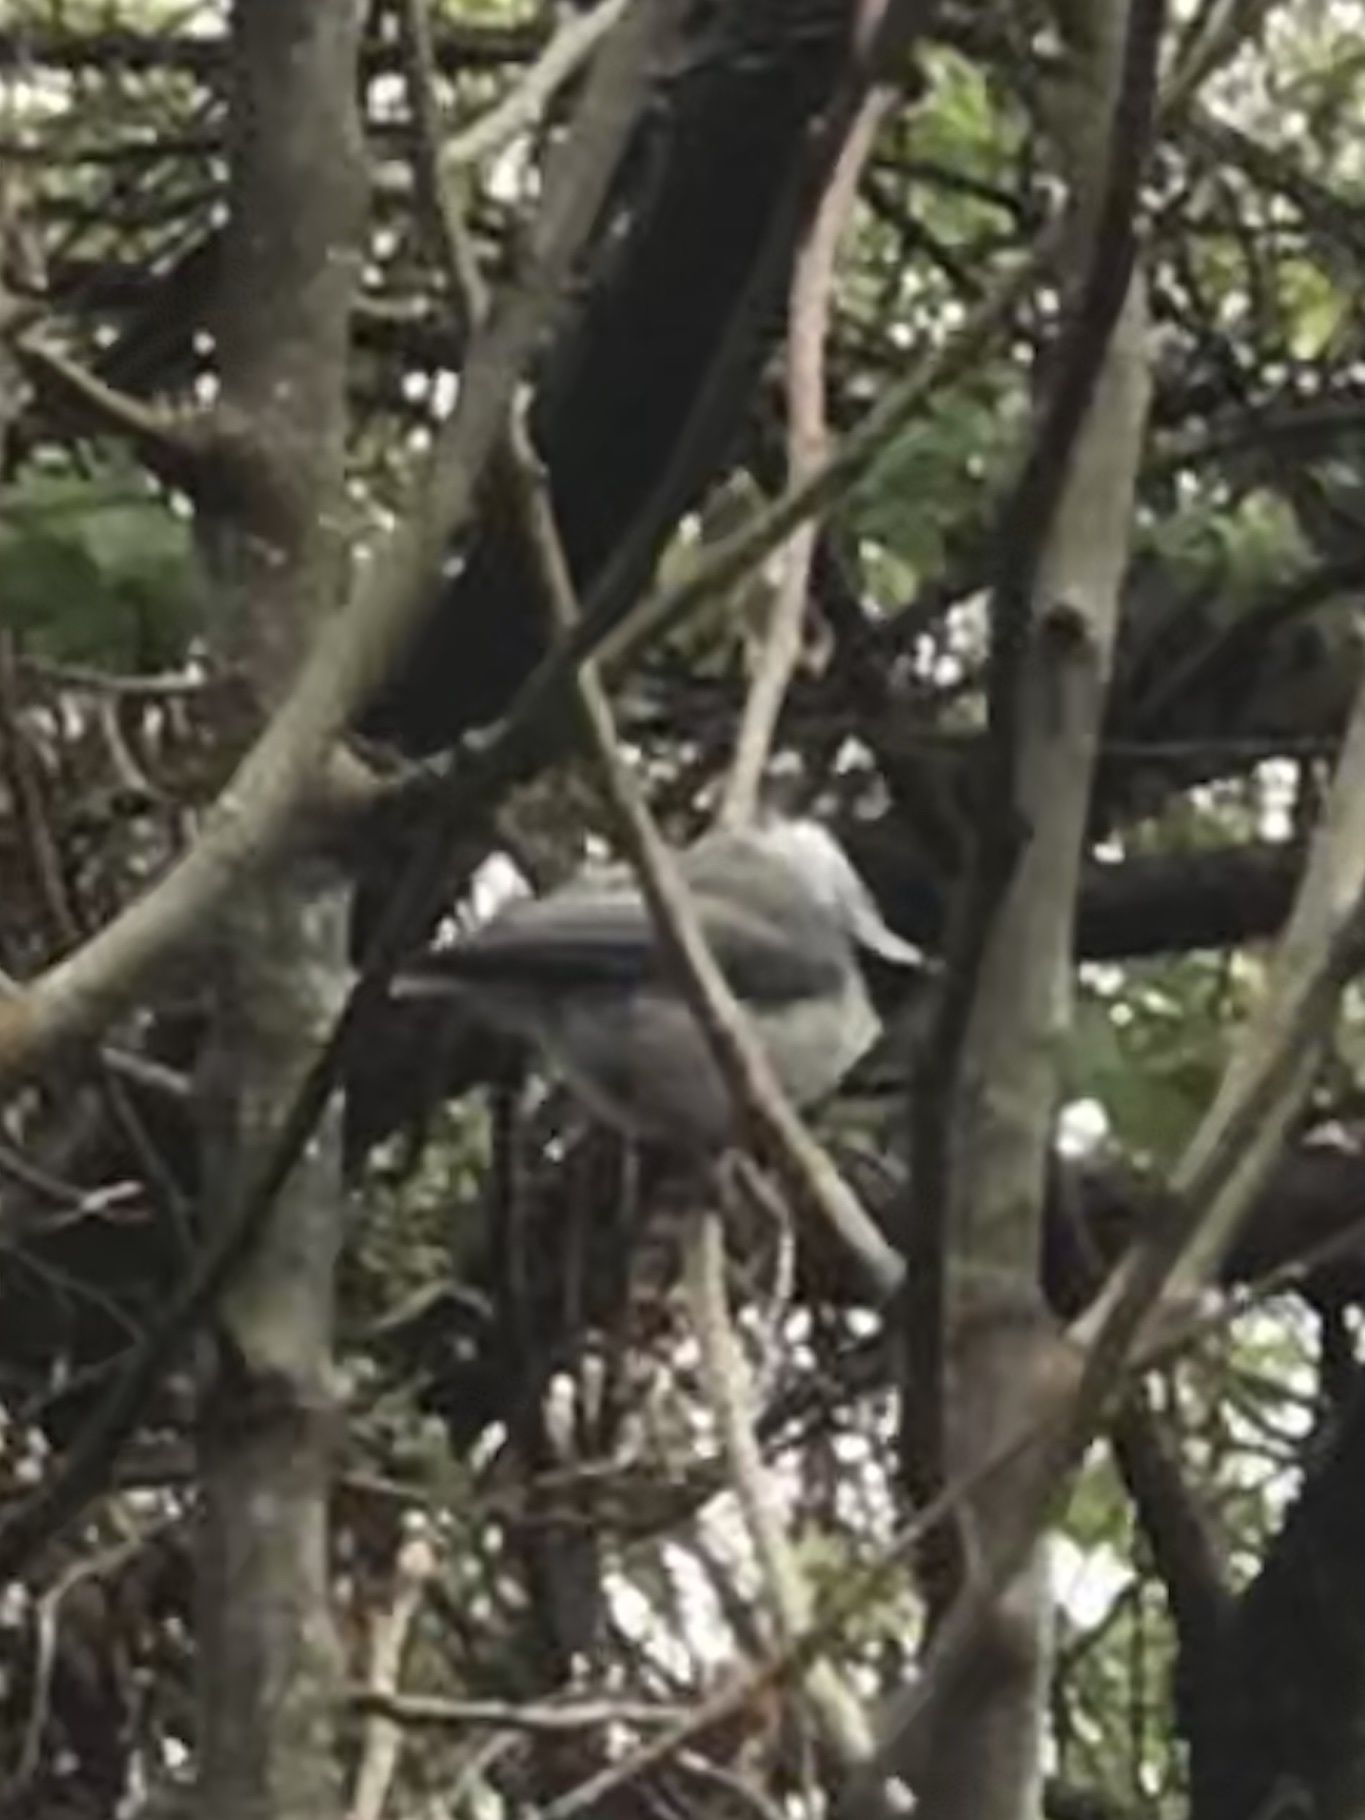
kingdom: Animalia
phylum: Chordata
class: Aves
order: Passeriformes
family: Paridae
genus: Poecile
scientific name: Poecile carolinensis
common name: Carolina chickadee
